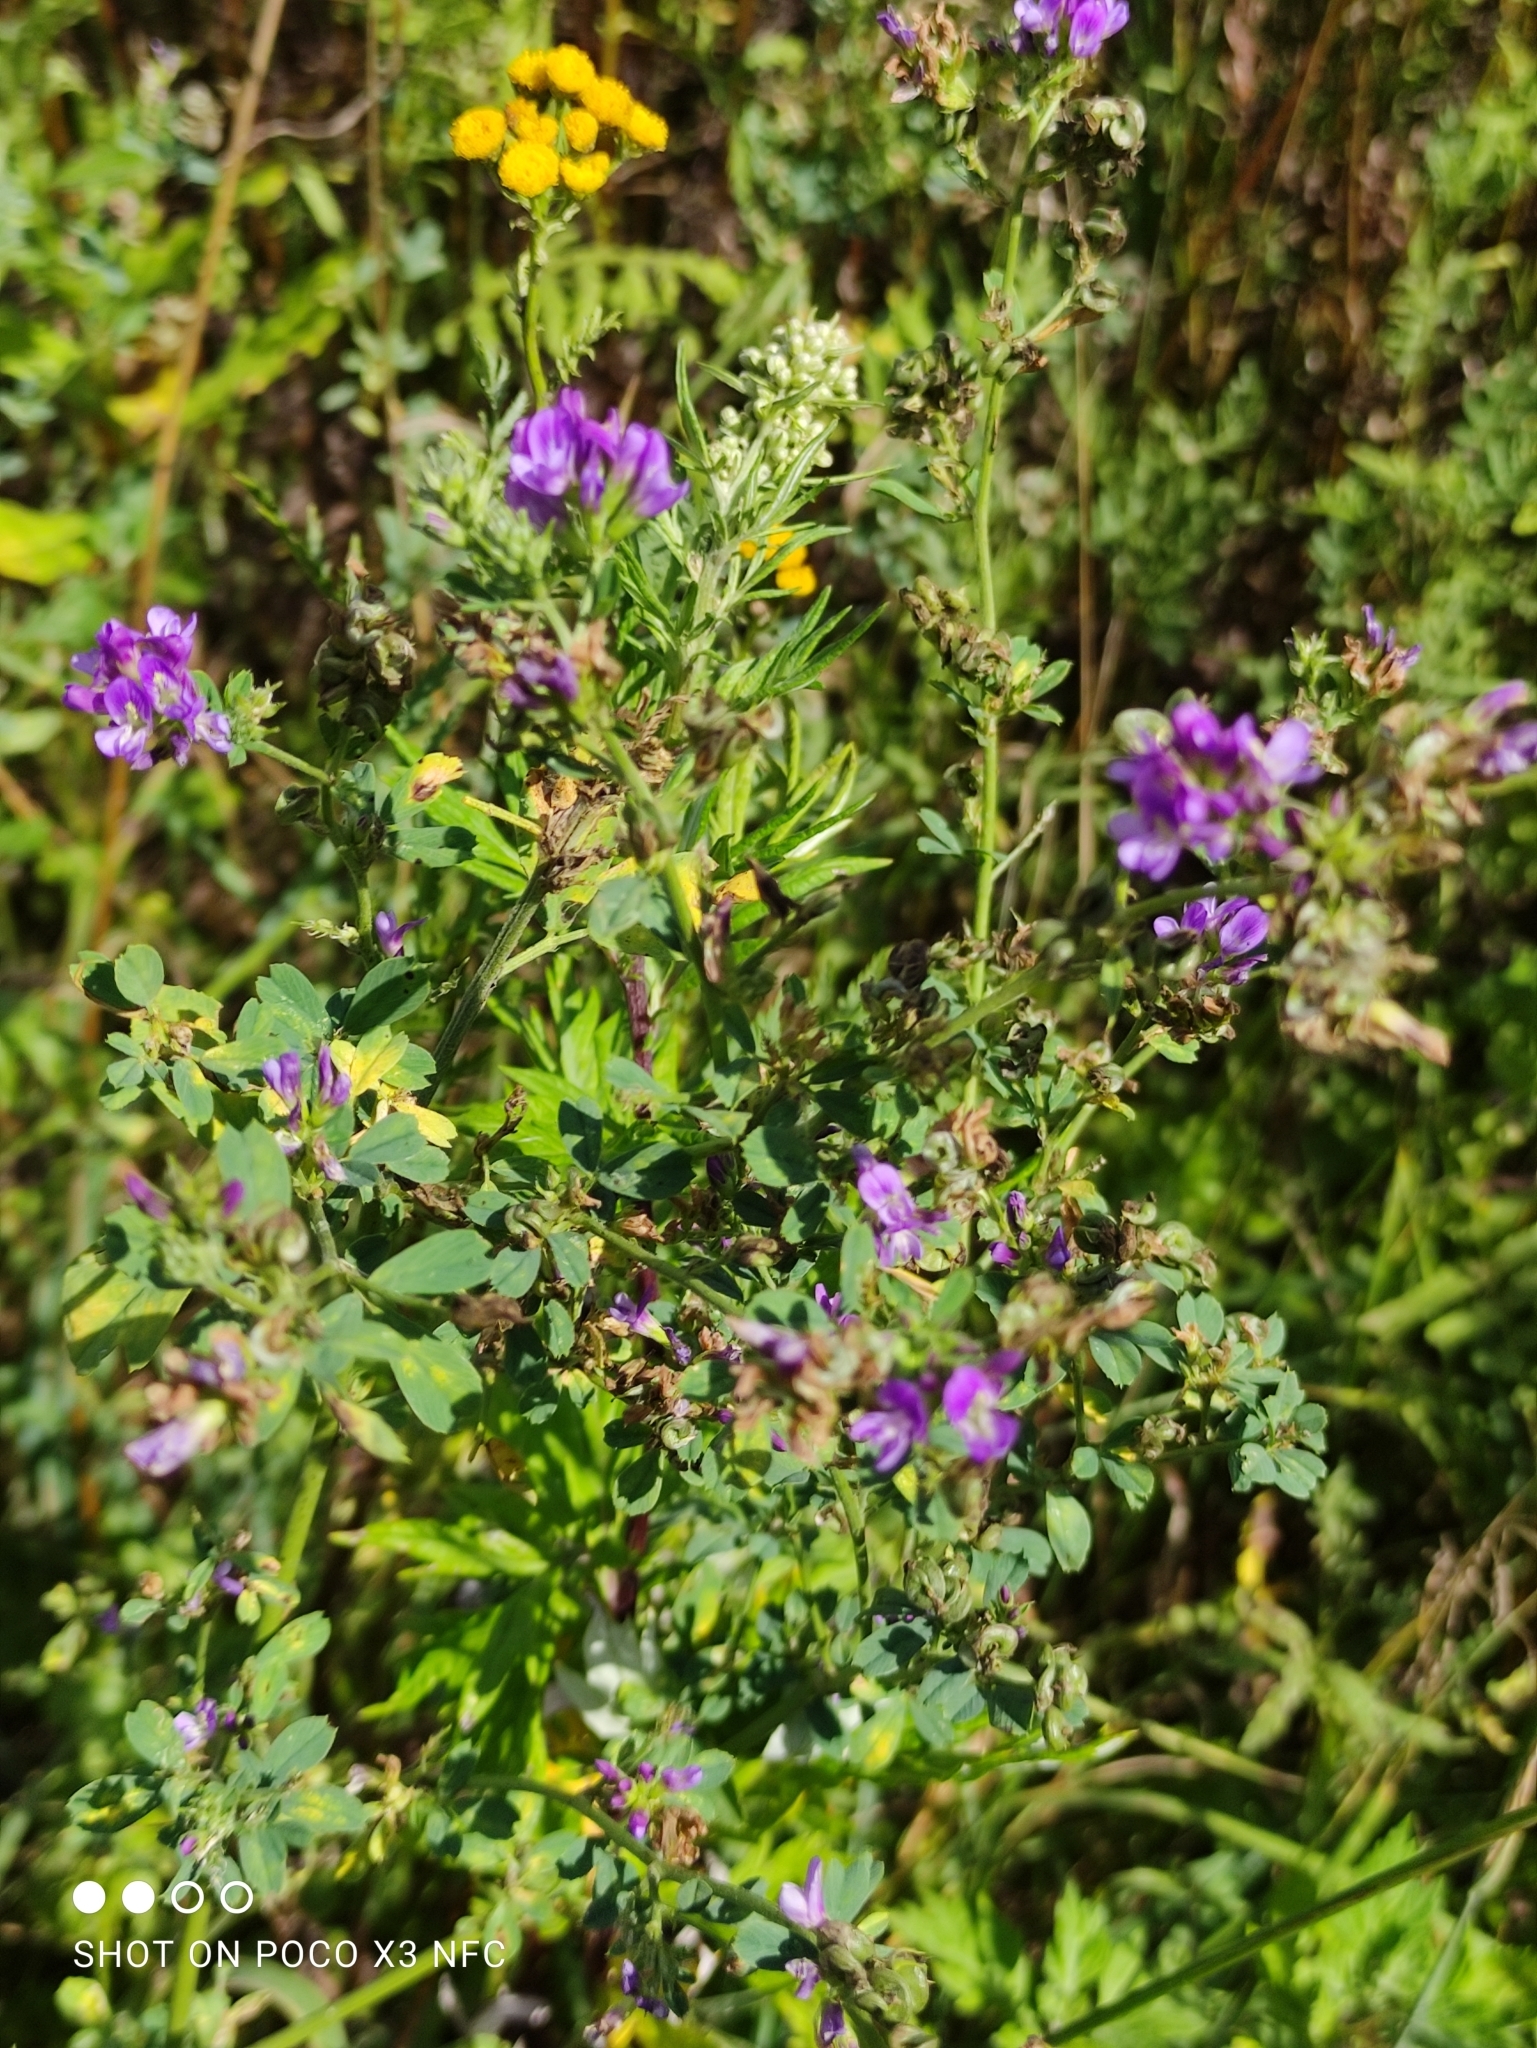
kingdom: Plantae
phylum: Tracheophyta
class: Magnoliopsida
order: Fabales
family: Fabaceae
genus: Medicago
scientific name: Medicago varia
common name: Sand lucerne
